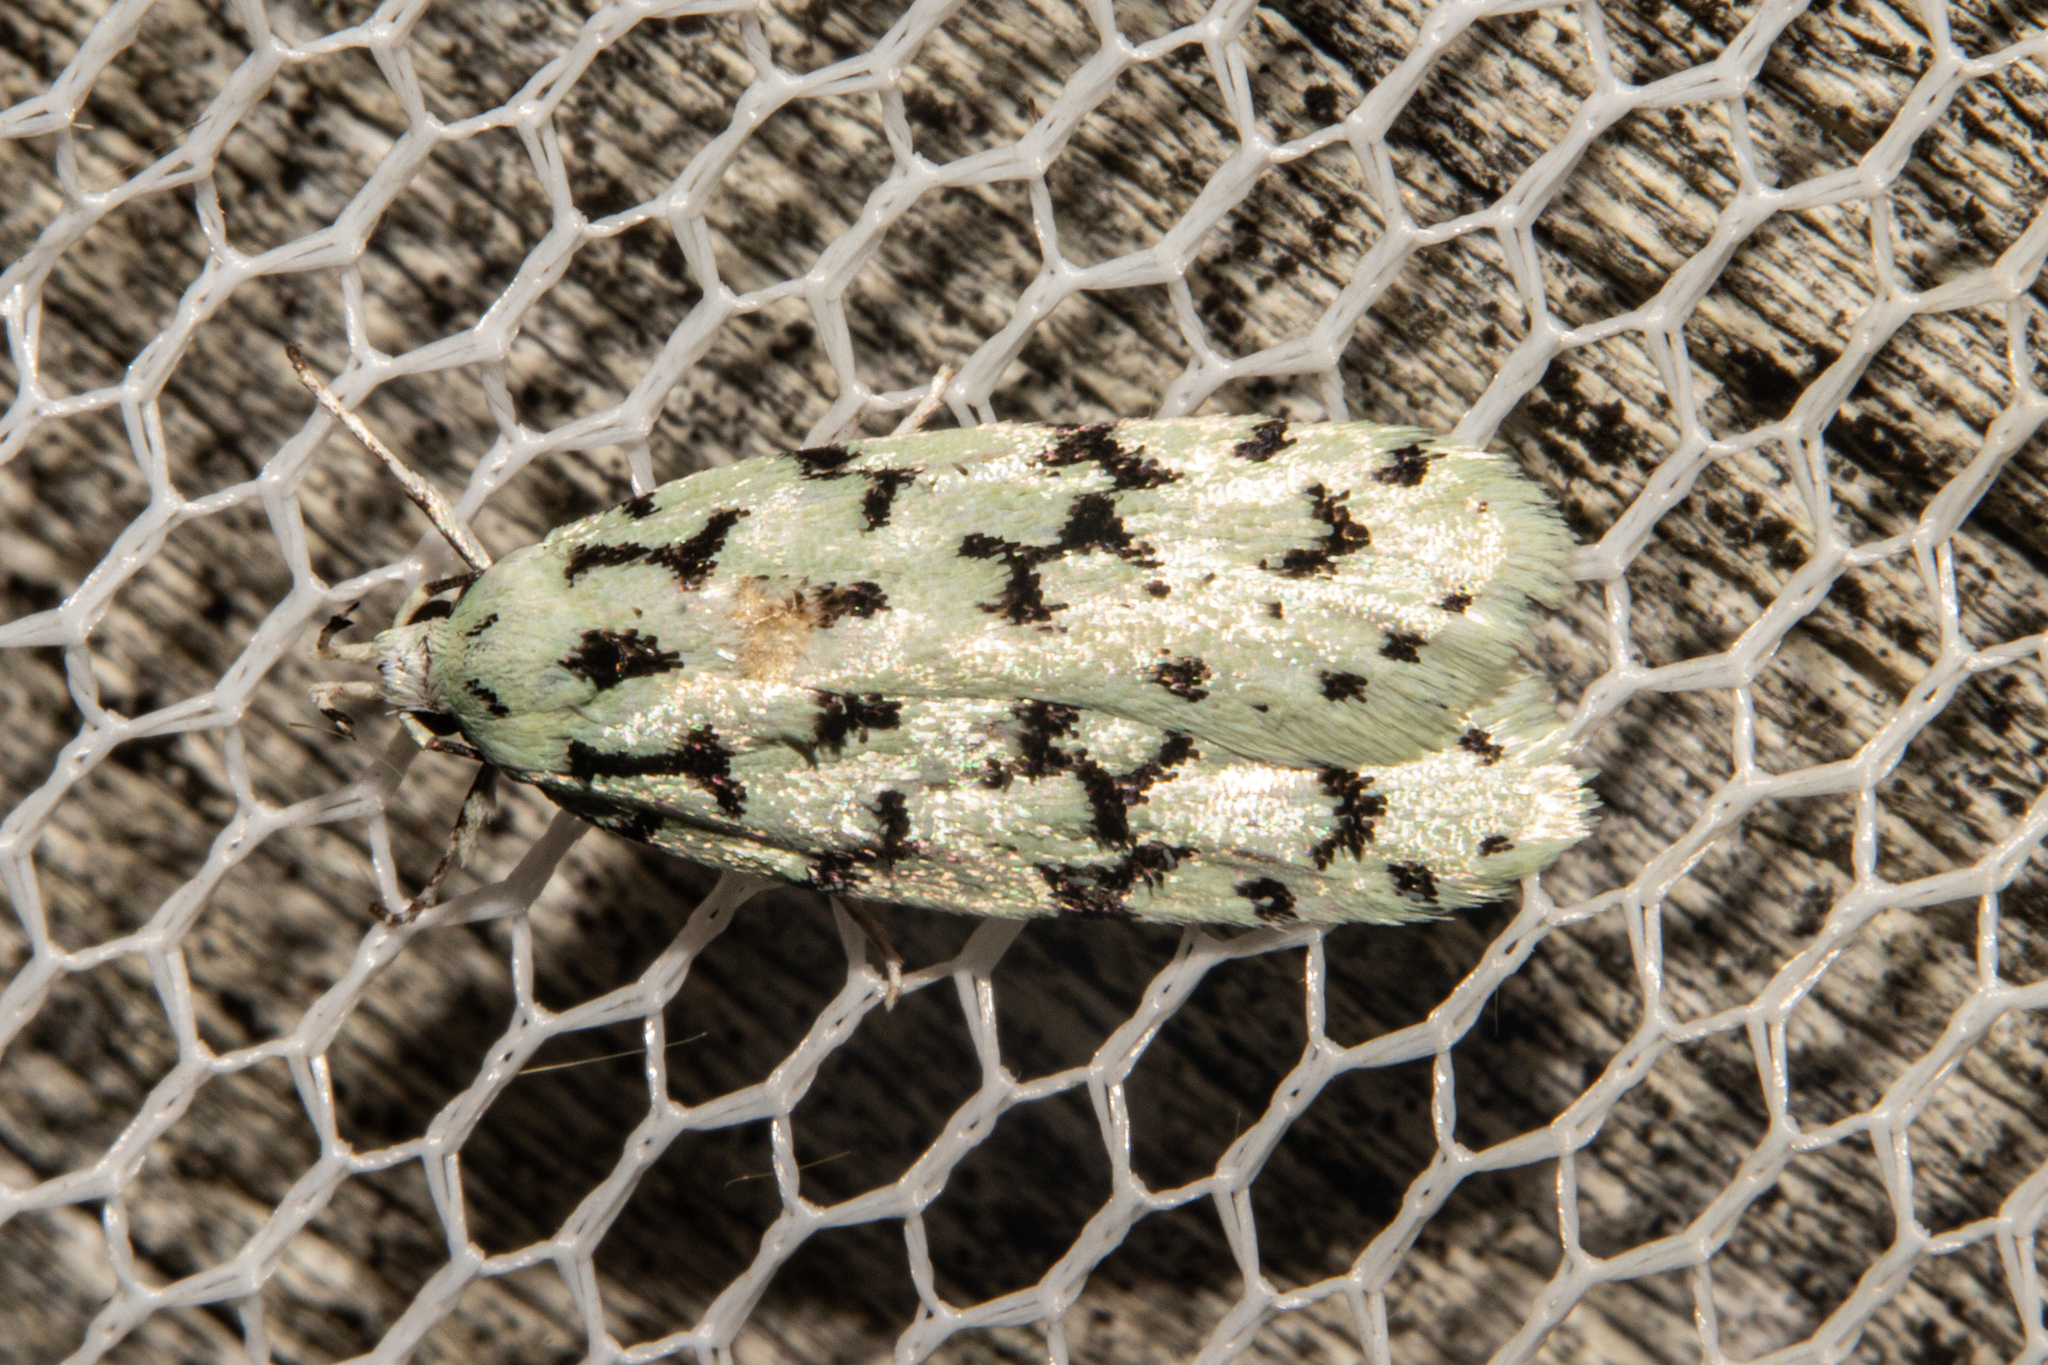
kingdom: Animalia
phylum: Arthropoda
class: Insecta
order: Lepidoptera
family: Oecophoridae
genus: Izatha
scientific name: Izatha huttoni
